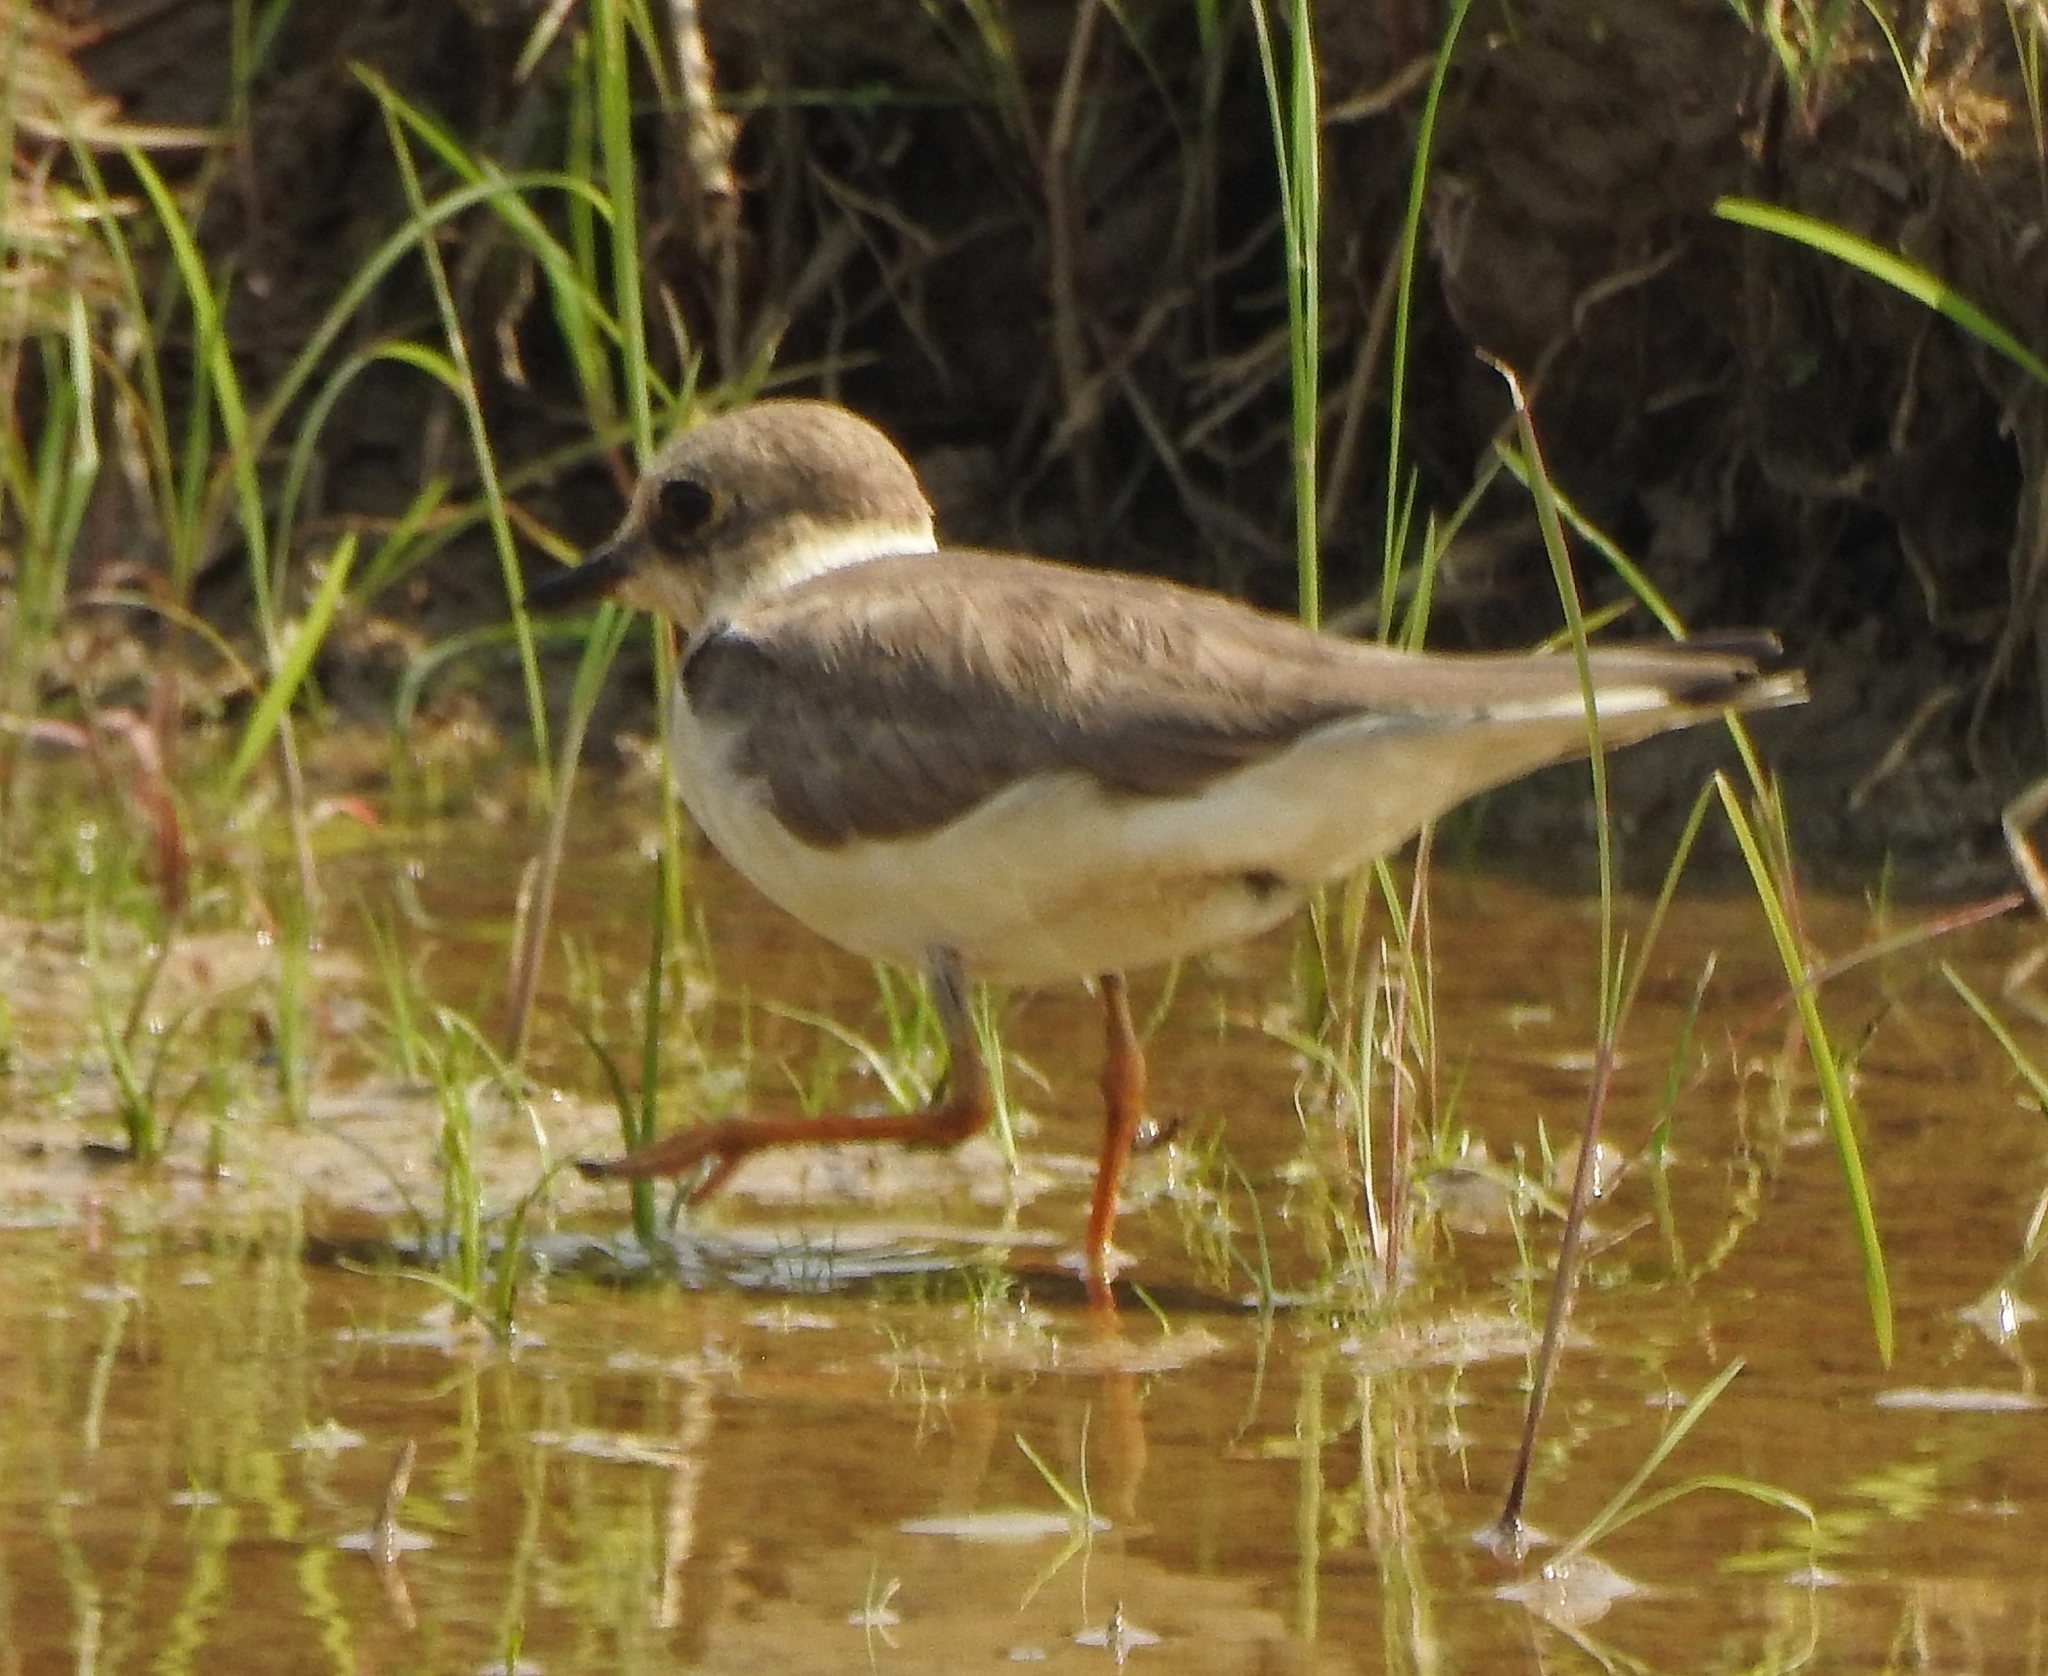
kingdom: Animalia
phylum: Chordata
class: Aves
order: Charadriiformes
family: Charadriidae
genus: Charadrius
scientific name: Charadrius dubius
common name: Little ringed plover
